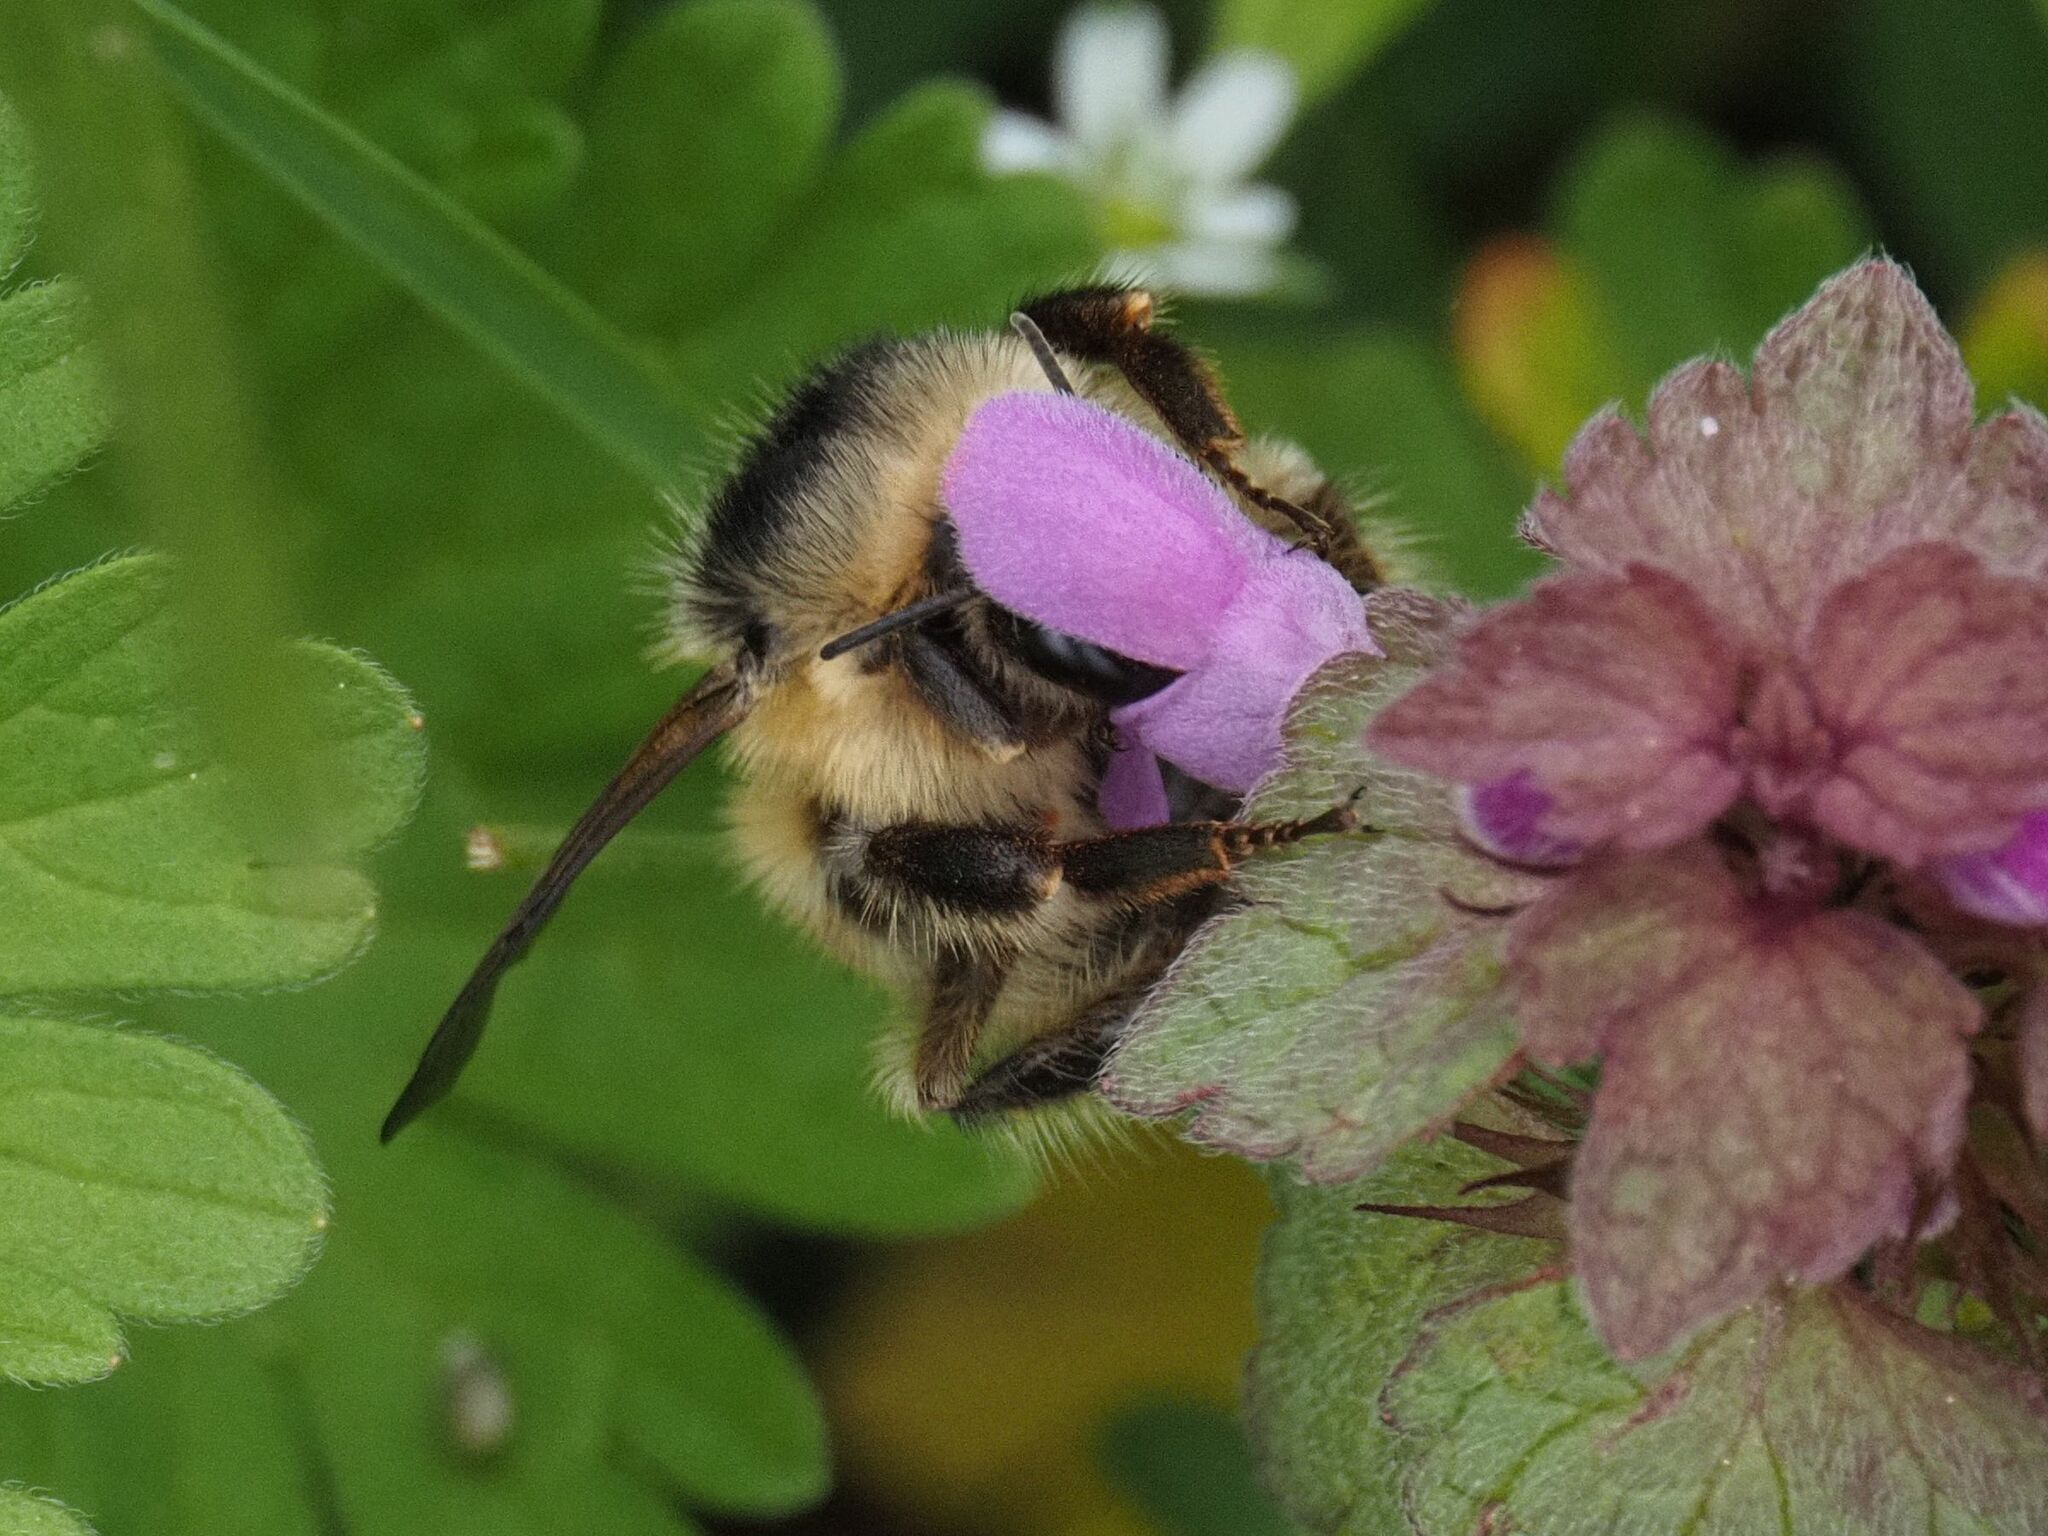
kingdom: Animalia
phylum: Arthropoda
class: Insecta
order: Hymenoptera
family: Apidae
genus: Bombus
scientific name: Bombus sylvarum
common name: Shrill carder bee
